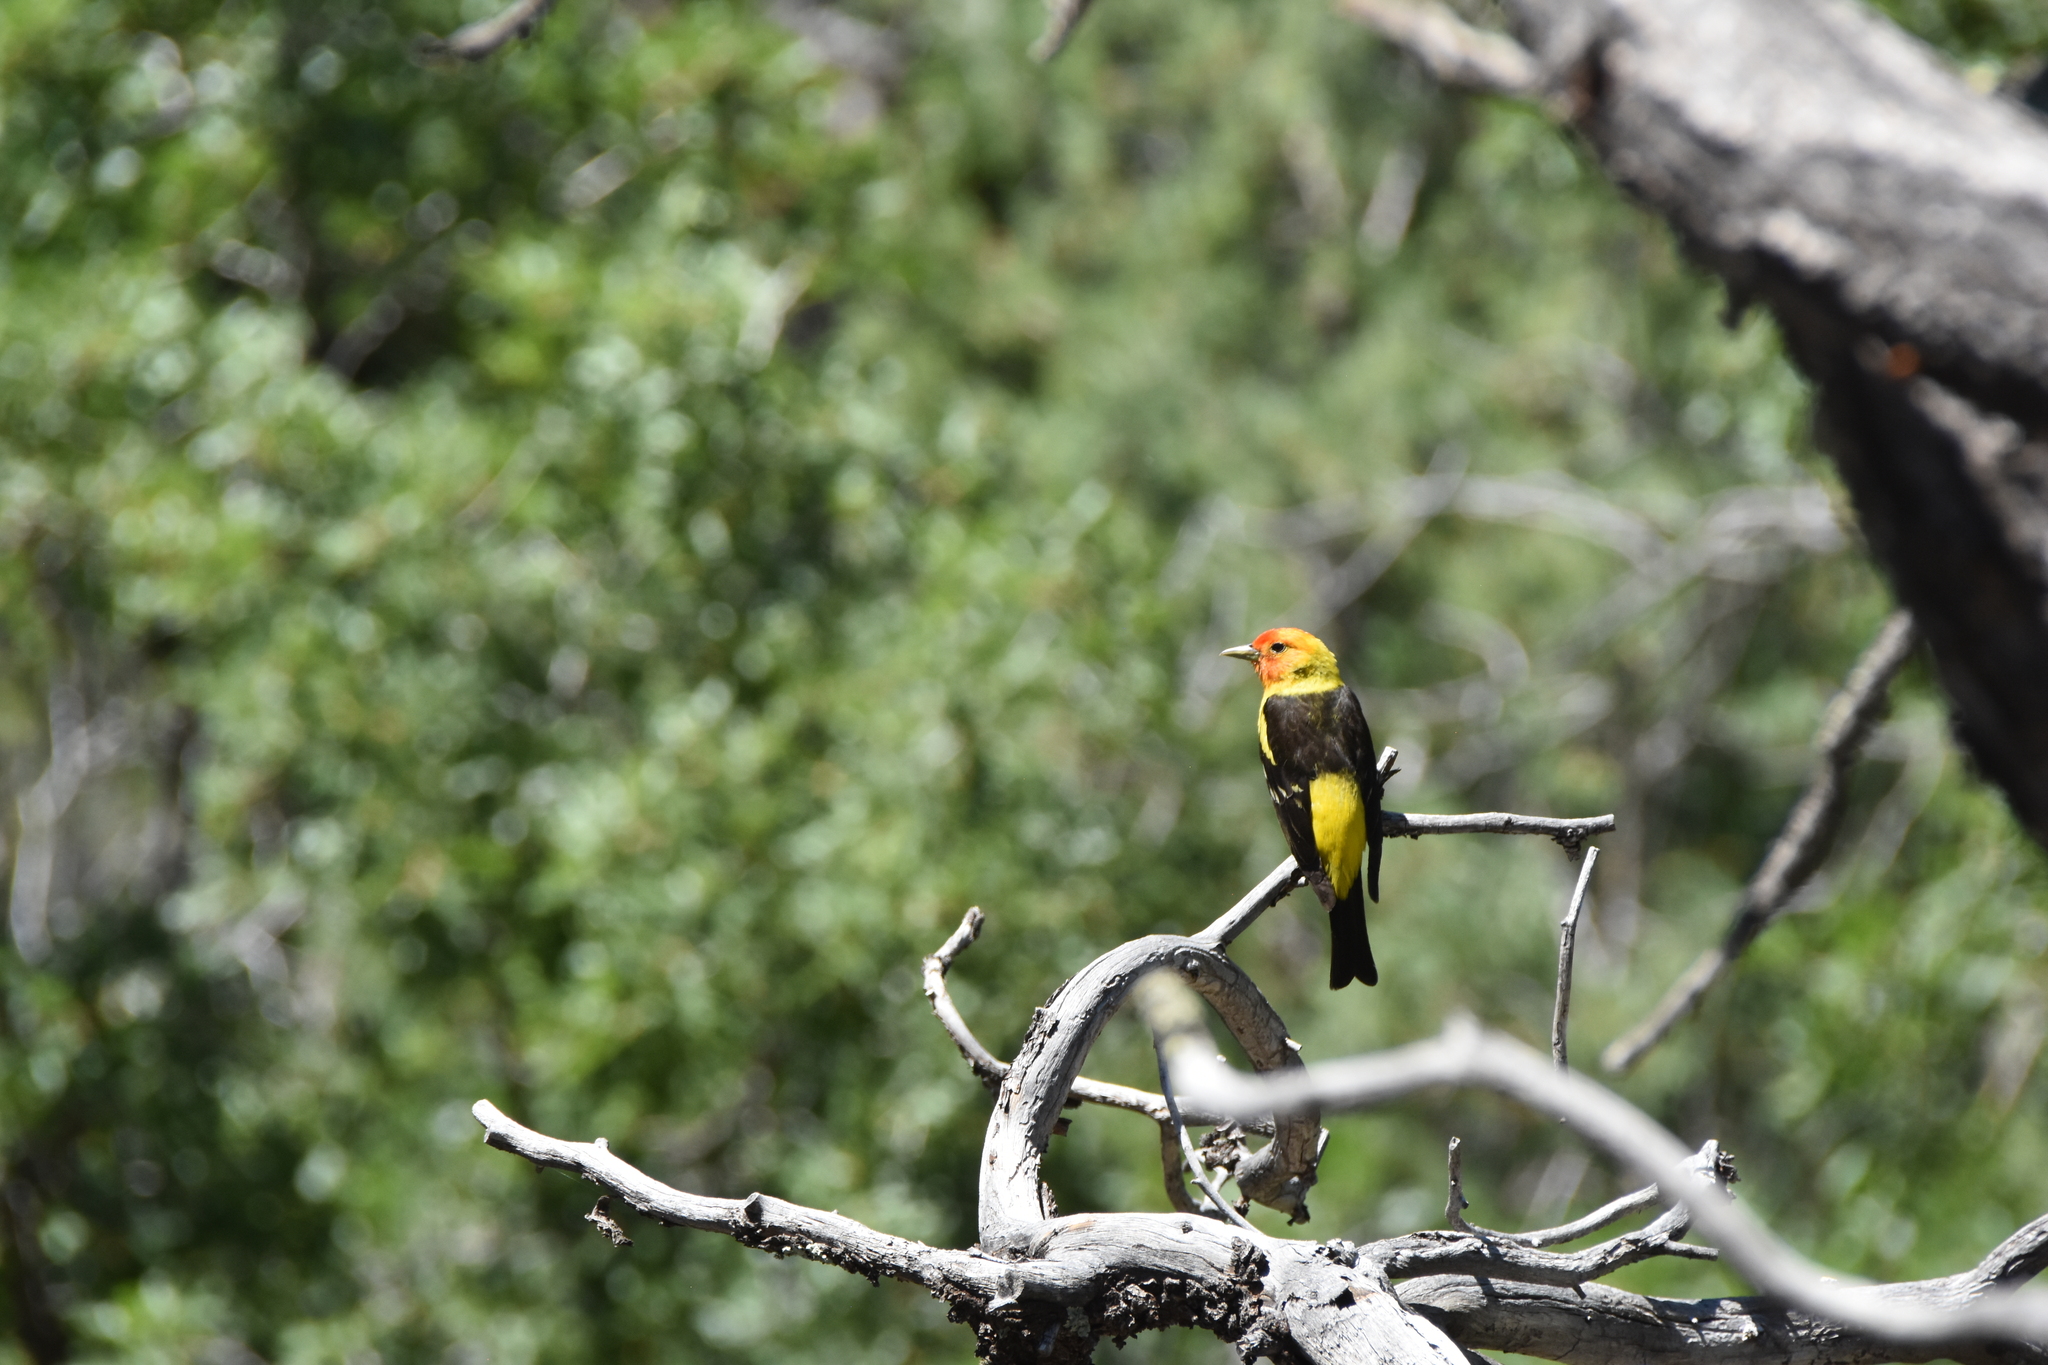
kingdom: Animalia
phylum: Chordata
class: Aves
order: Passeriformes
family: Cardinalidae
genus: Piranga
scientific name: Piranga ludoviciana
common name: Western tanager
